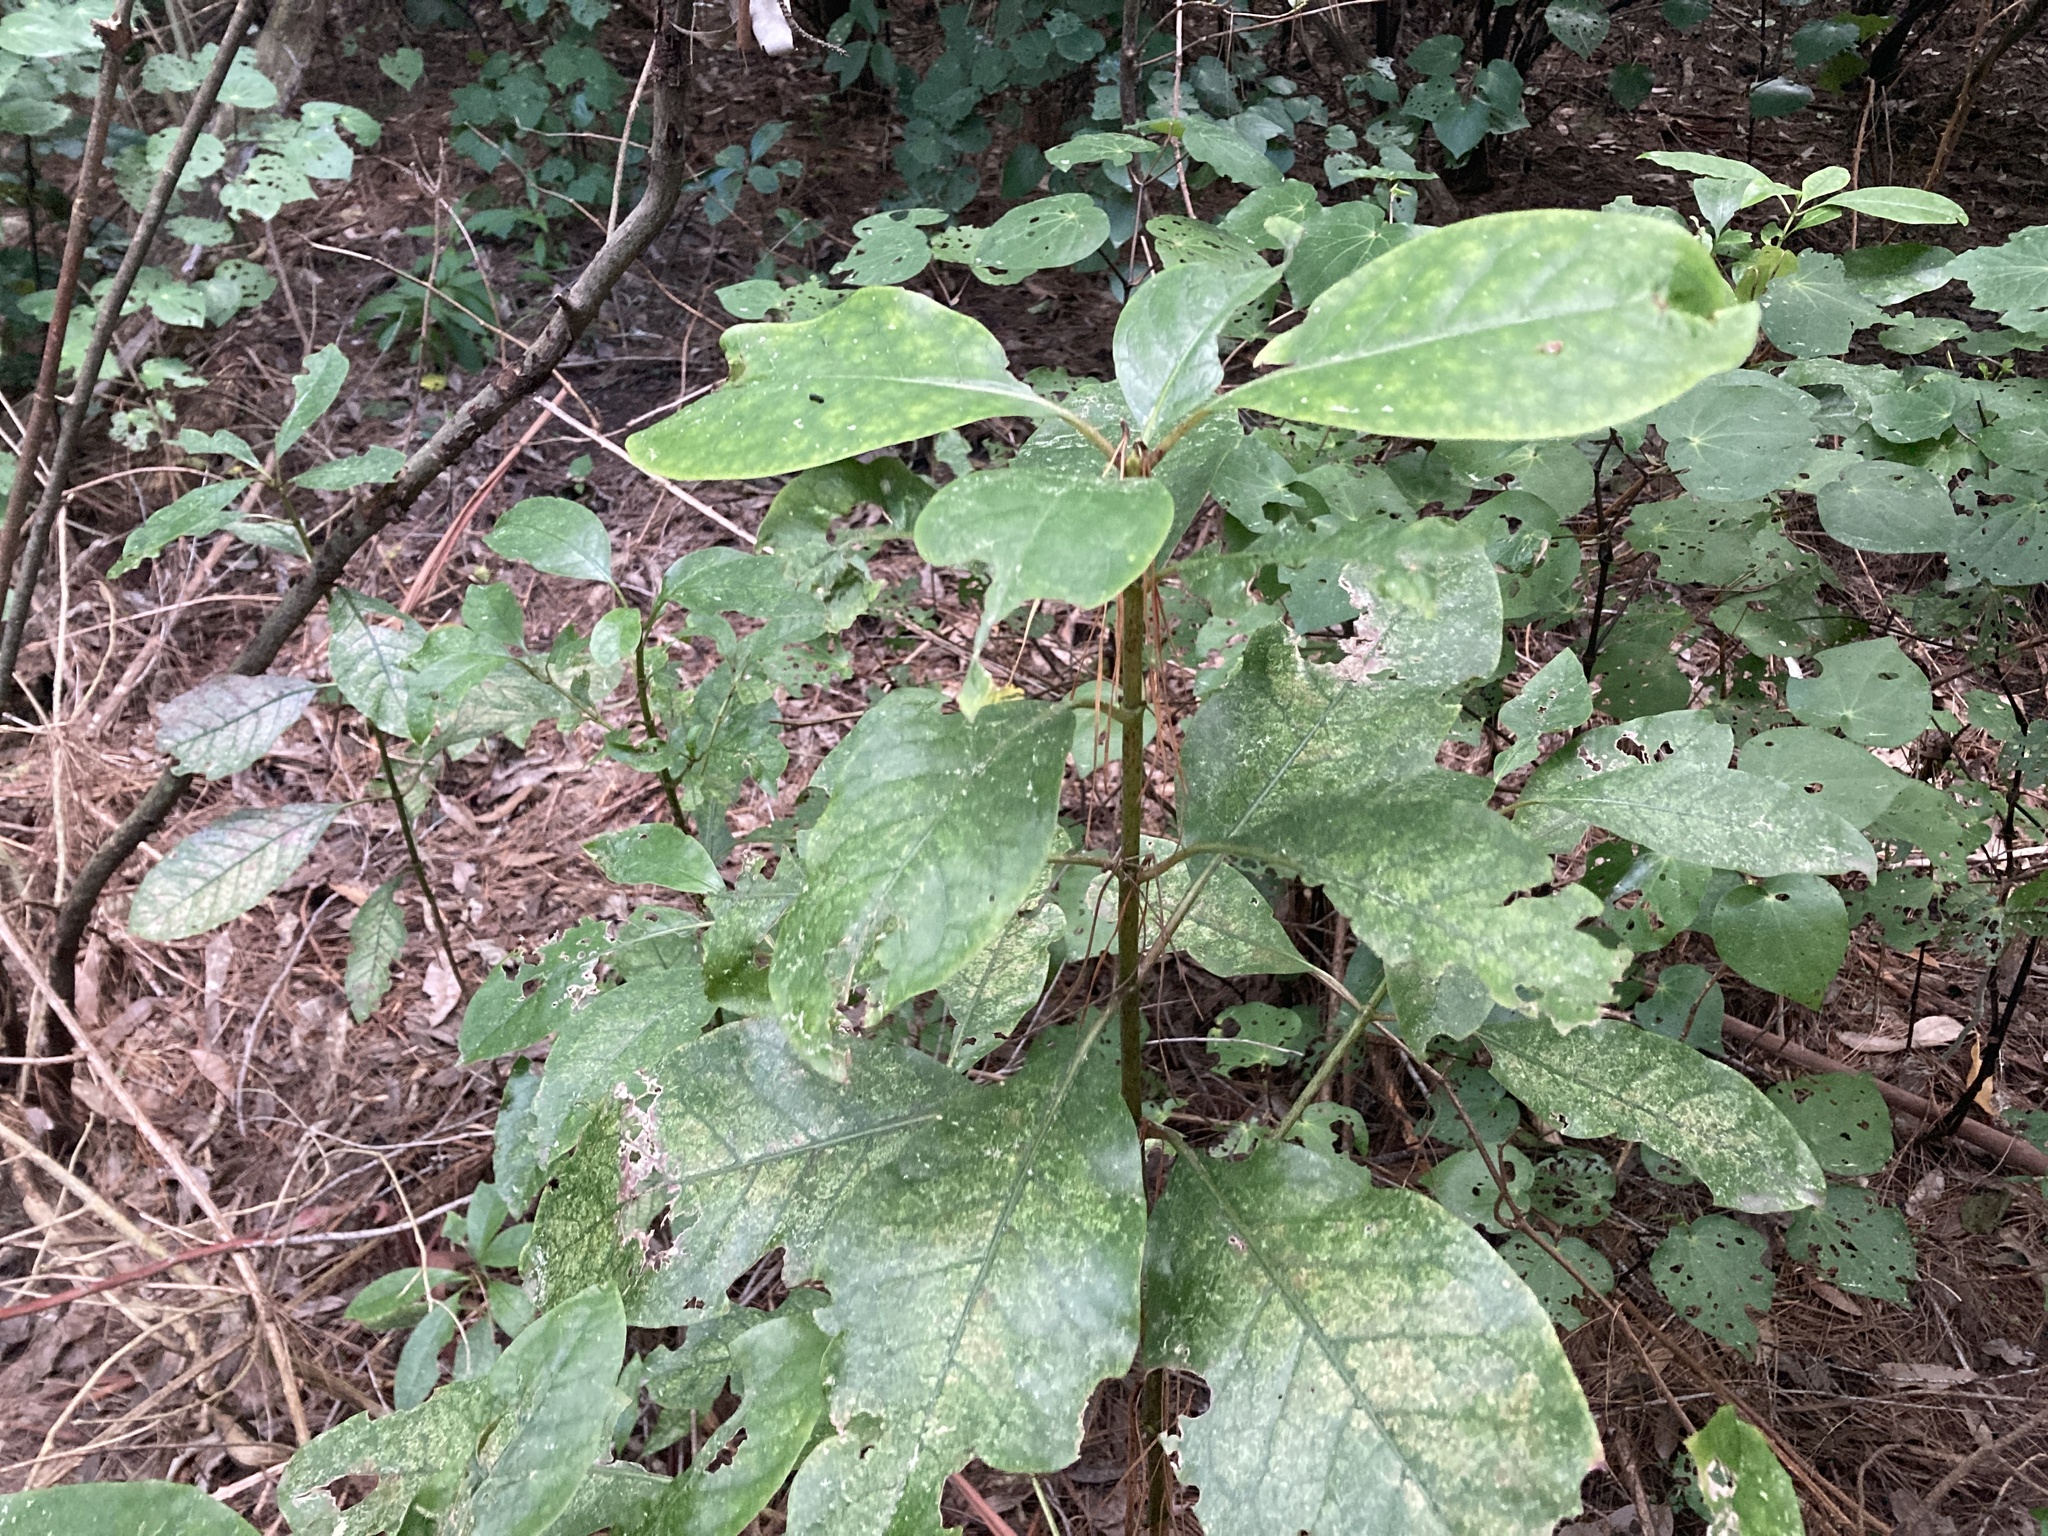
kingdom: Plantae
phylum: Tracheophyta
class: Magnoliopsida
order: Gentianales
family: Rubiaceae
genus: Coprosma
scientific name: Coprosma autumnalis
